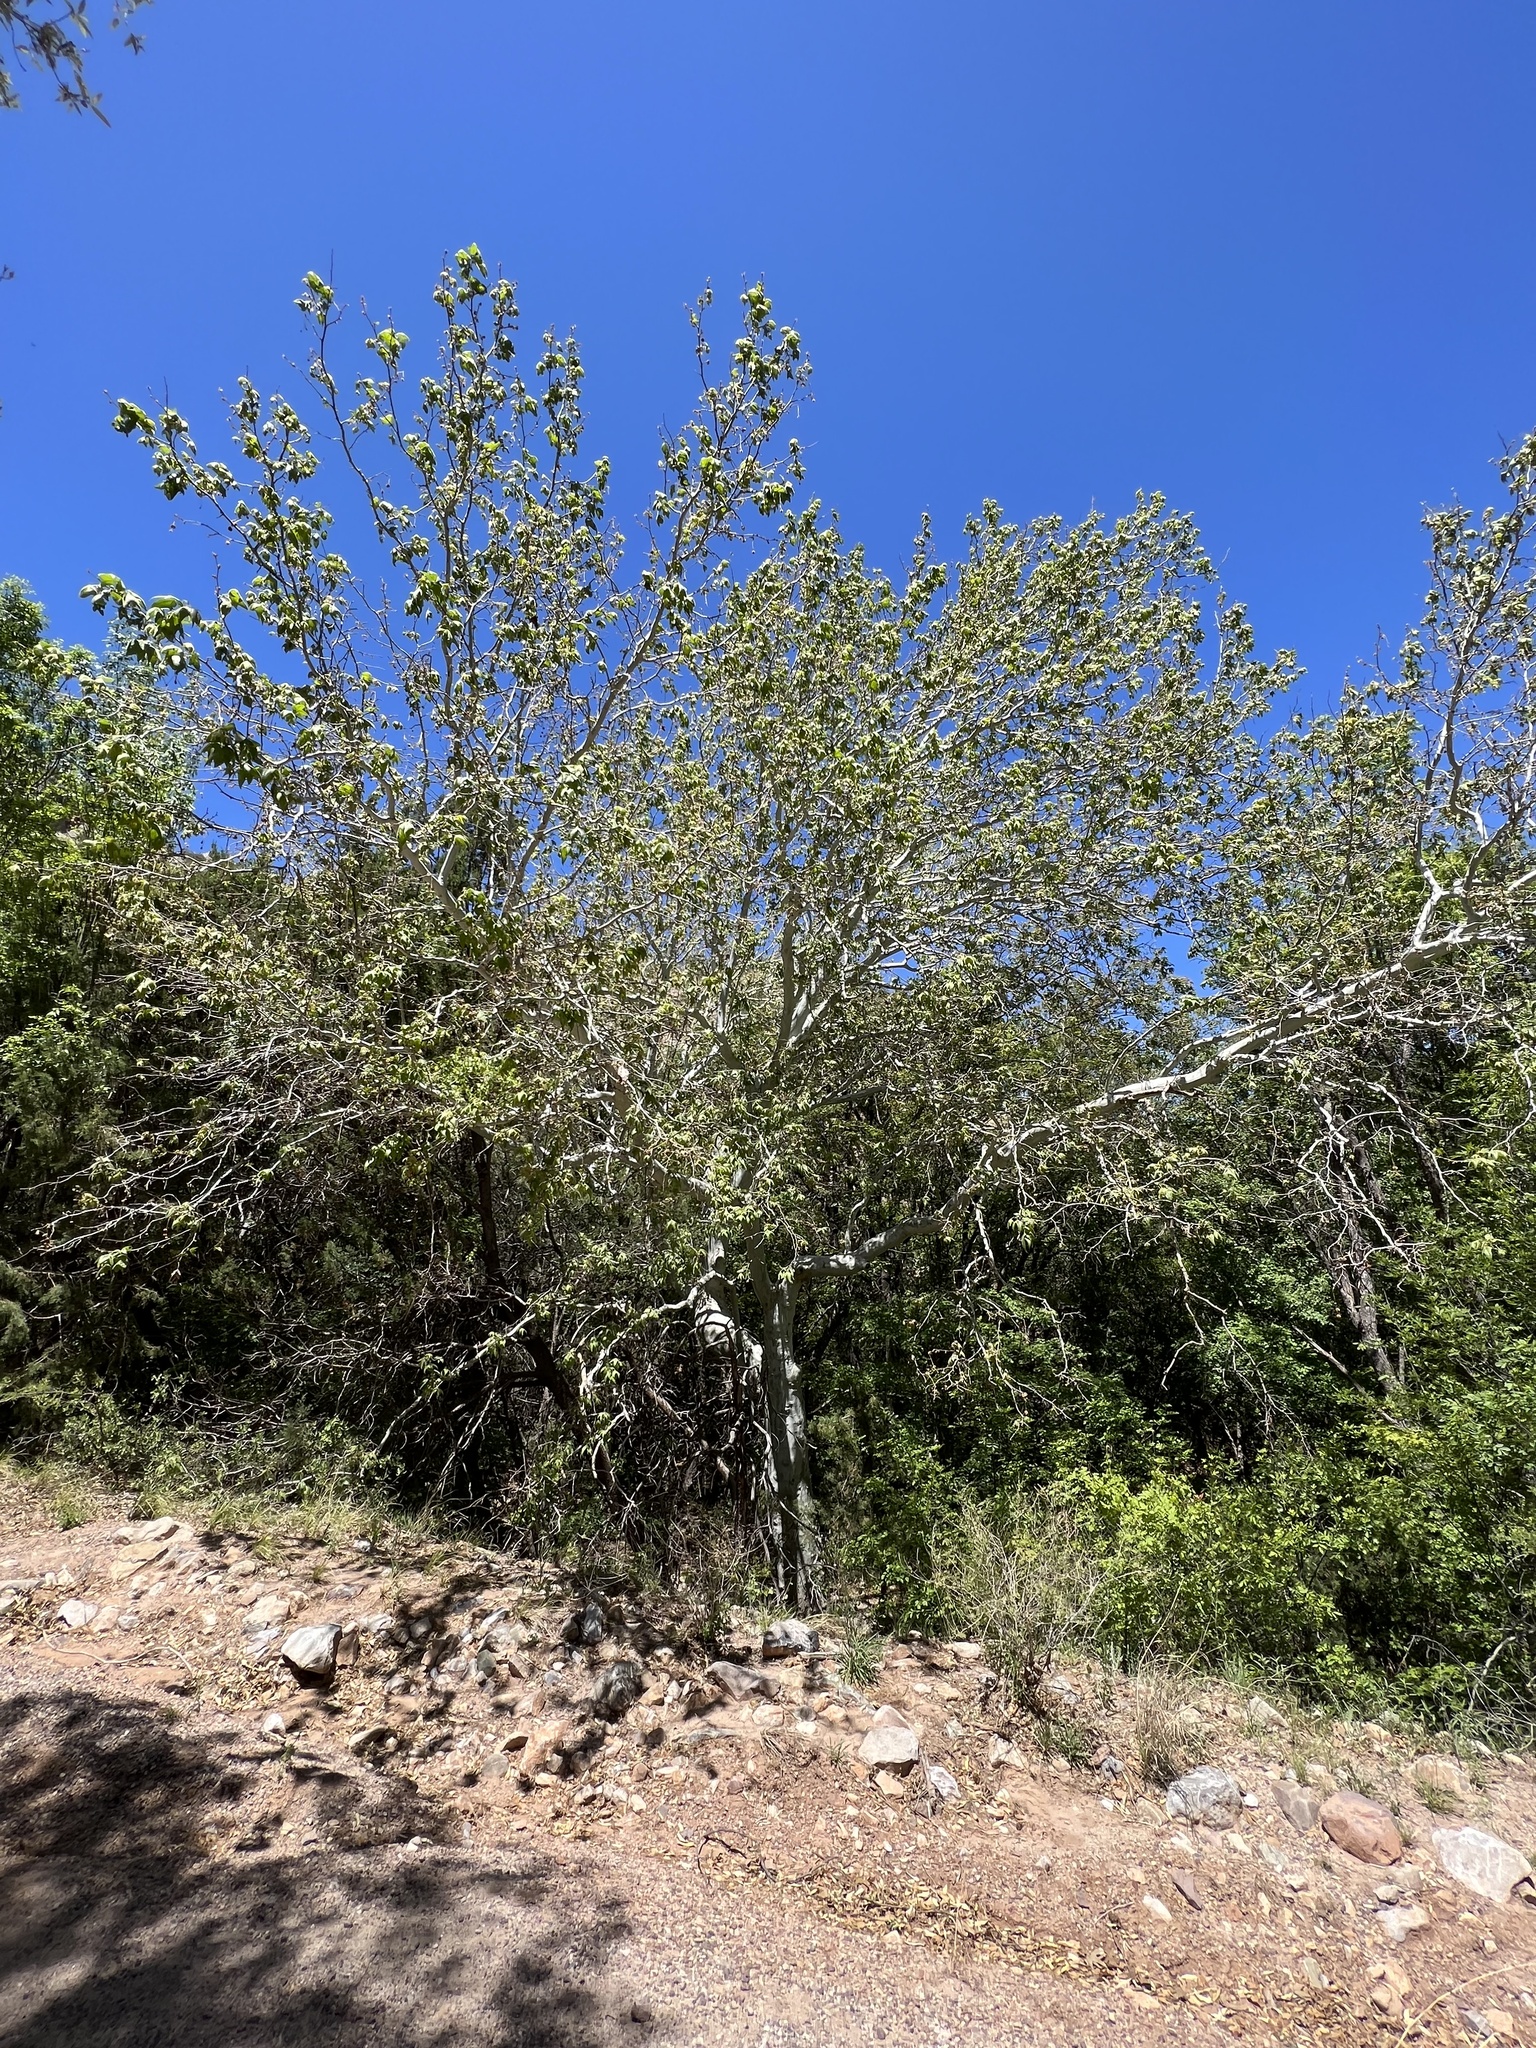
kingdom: Plantae
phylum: Tracheophyta
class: Magnoliopsida
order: Proteales
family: Platanaceae
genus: Platanus
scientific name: Platanus wrightii
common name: Arizona sycamore
